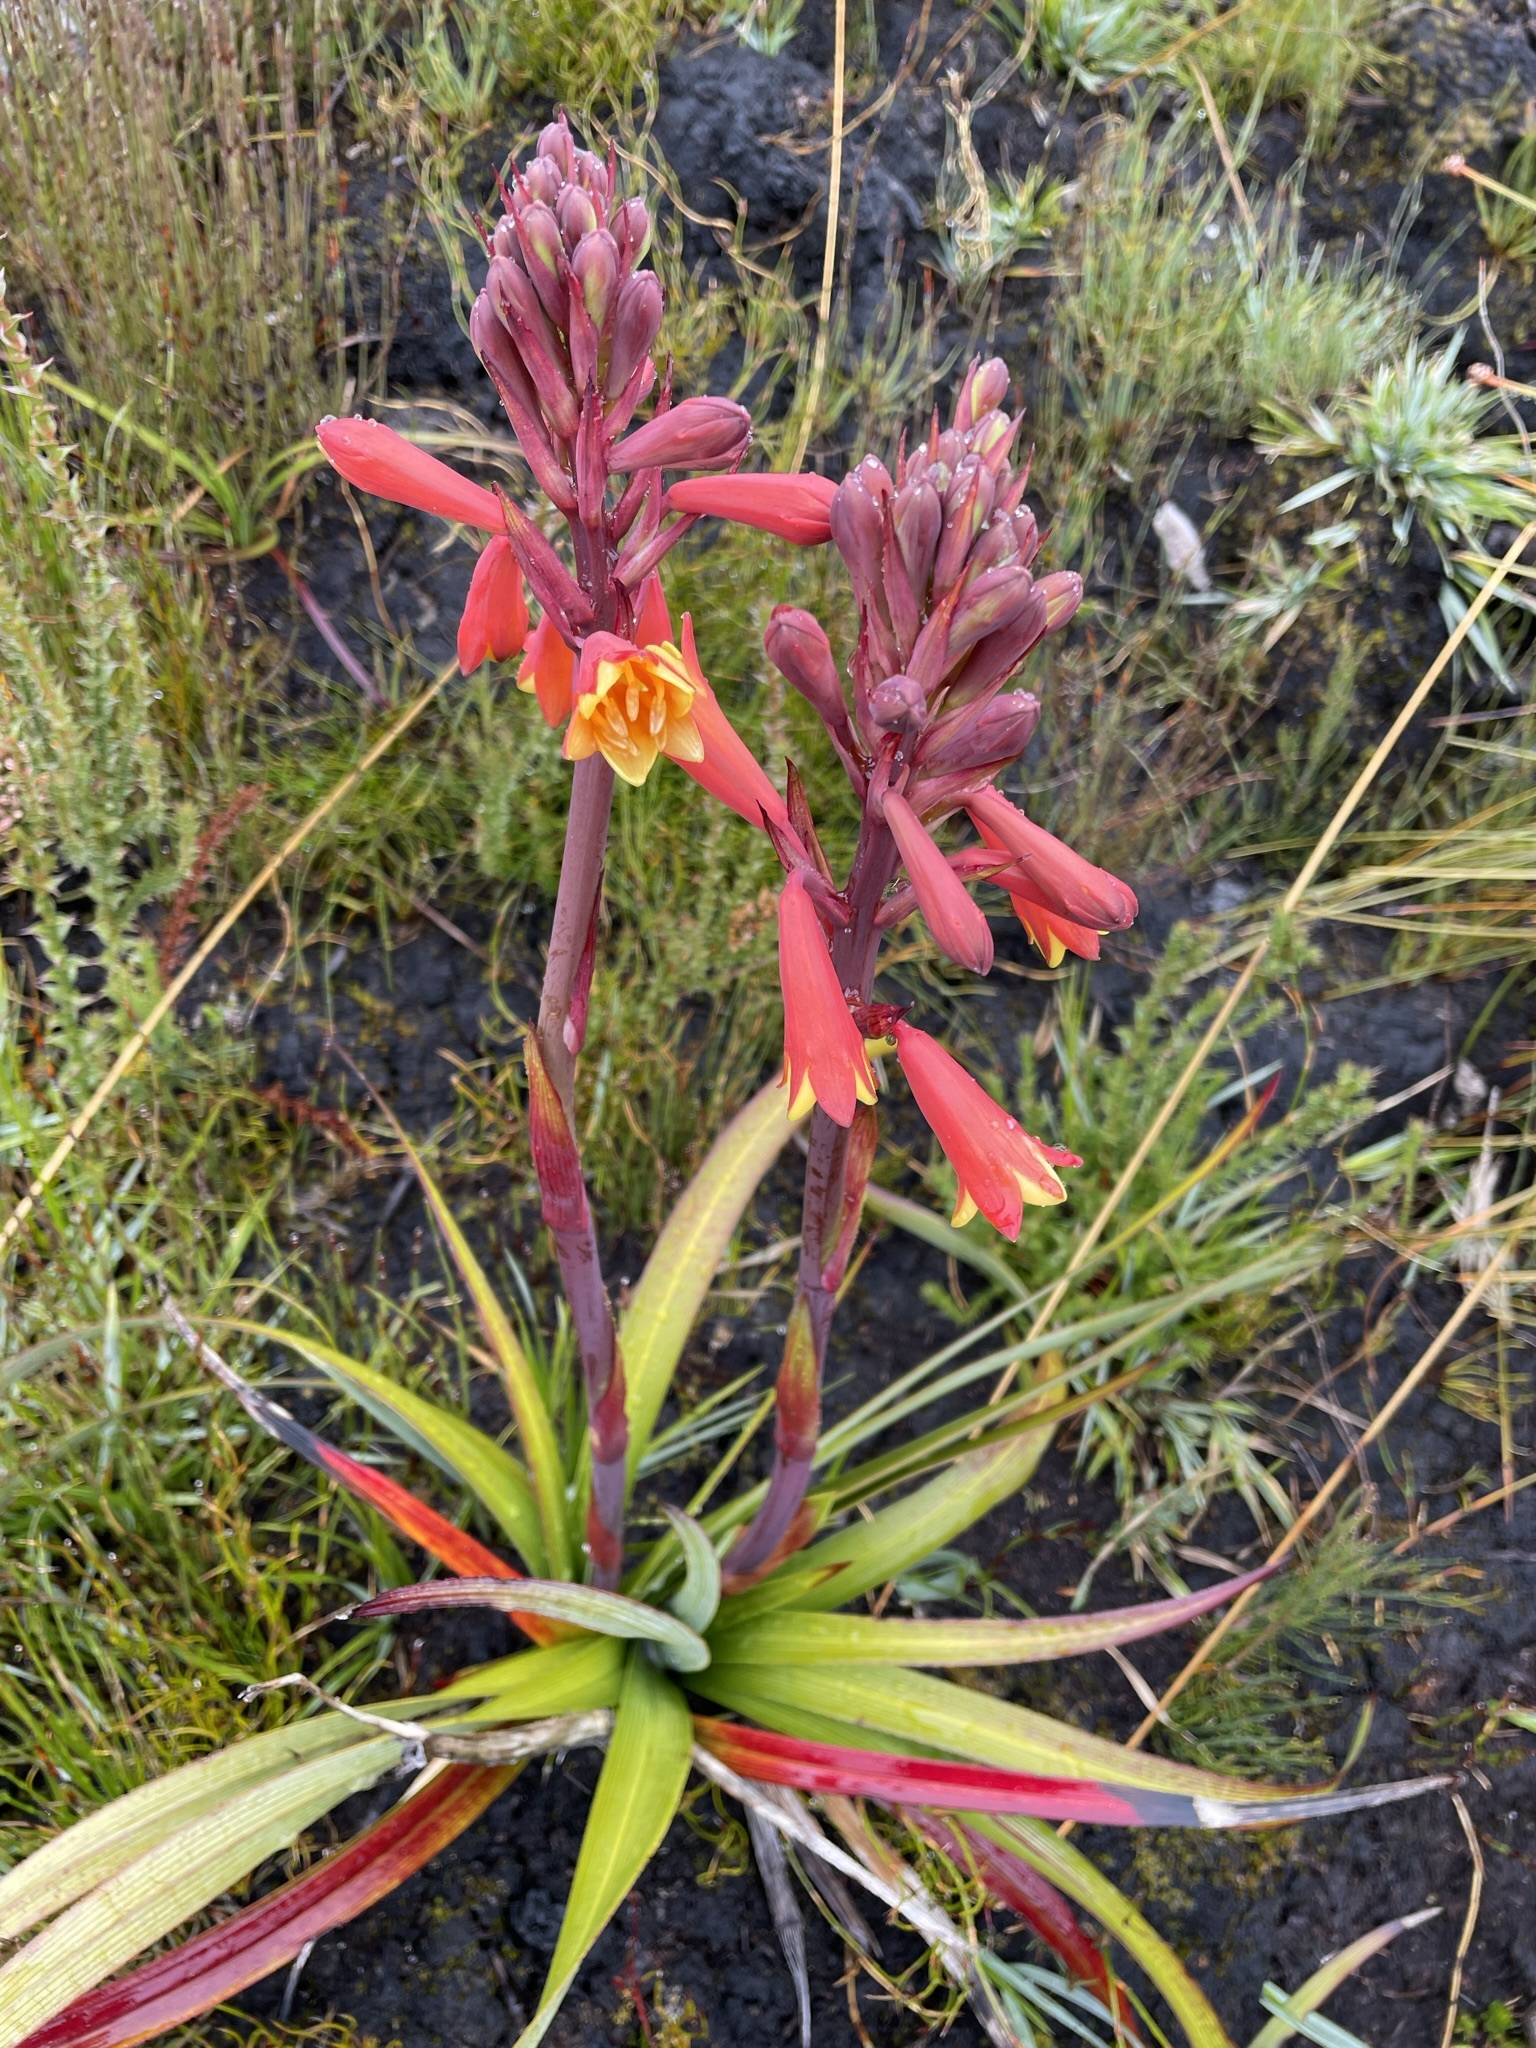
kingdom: Plantae
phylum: Tracheophyta
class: Liliopsida
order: Asparagales
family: Blandfordiaceae
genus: Blandfordia
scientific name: Blandfordia punicea
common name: Tasmanian christmas-bell
